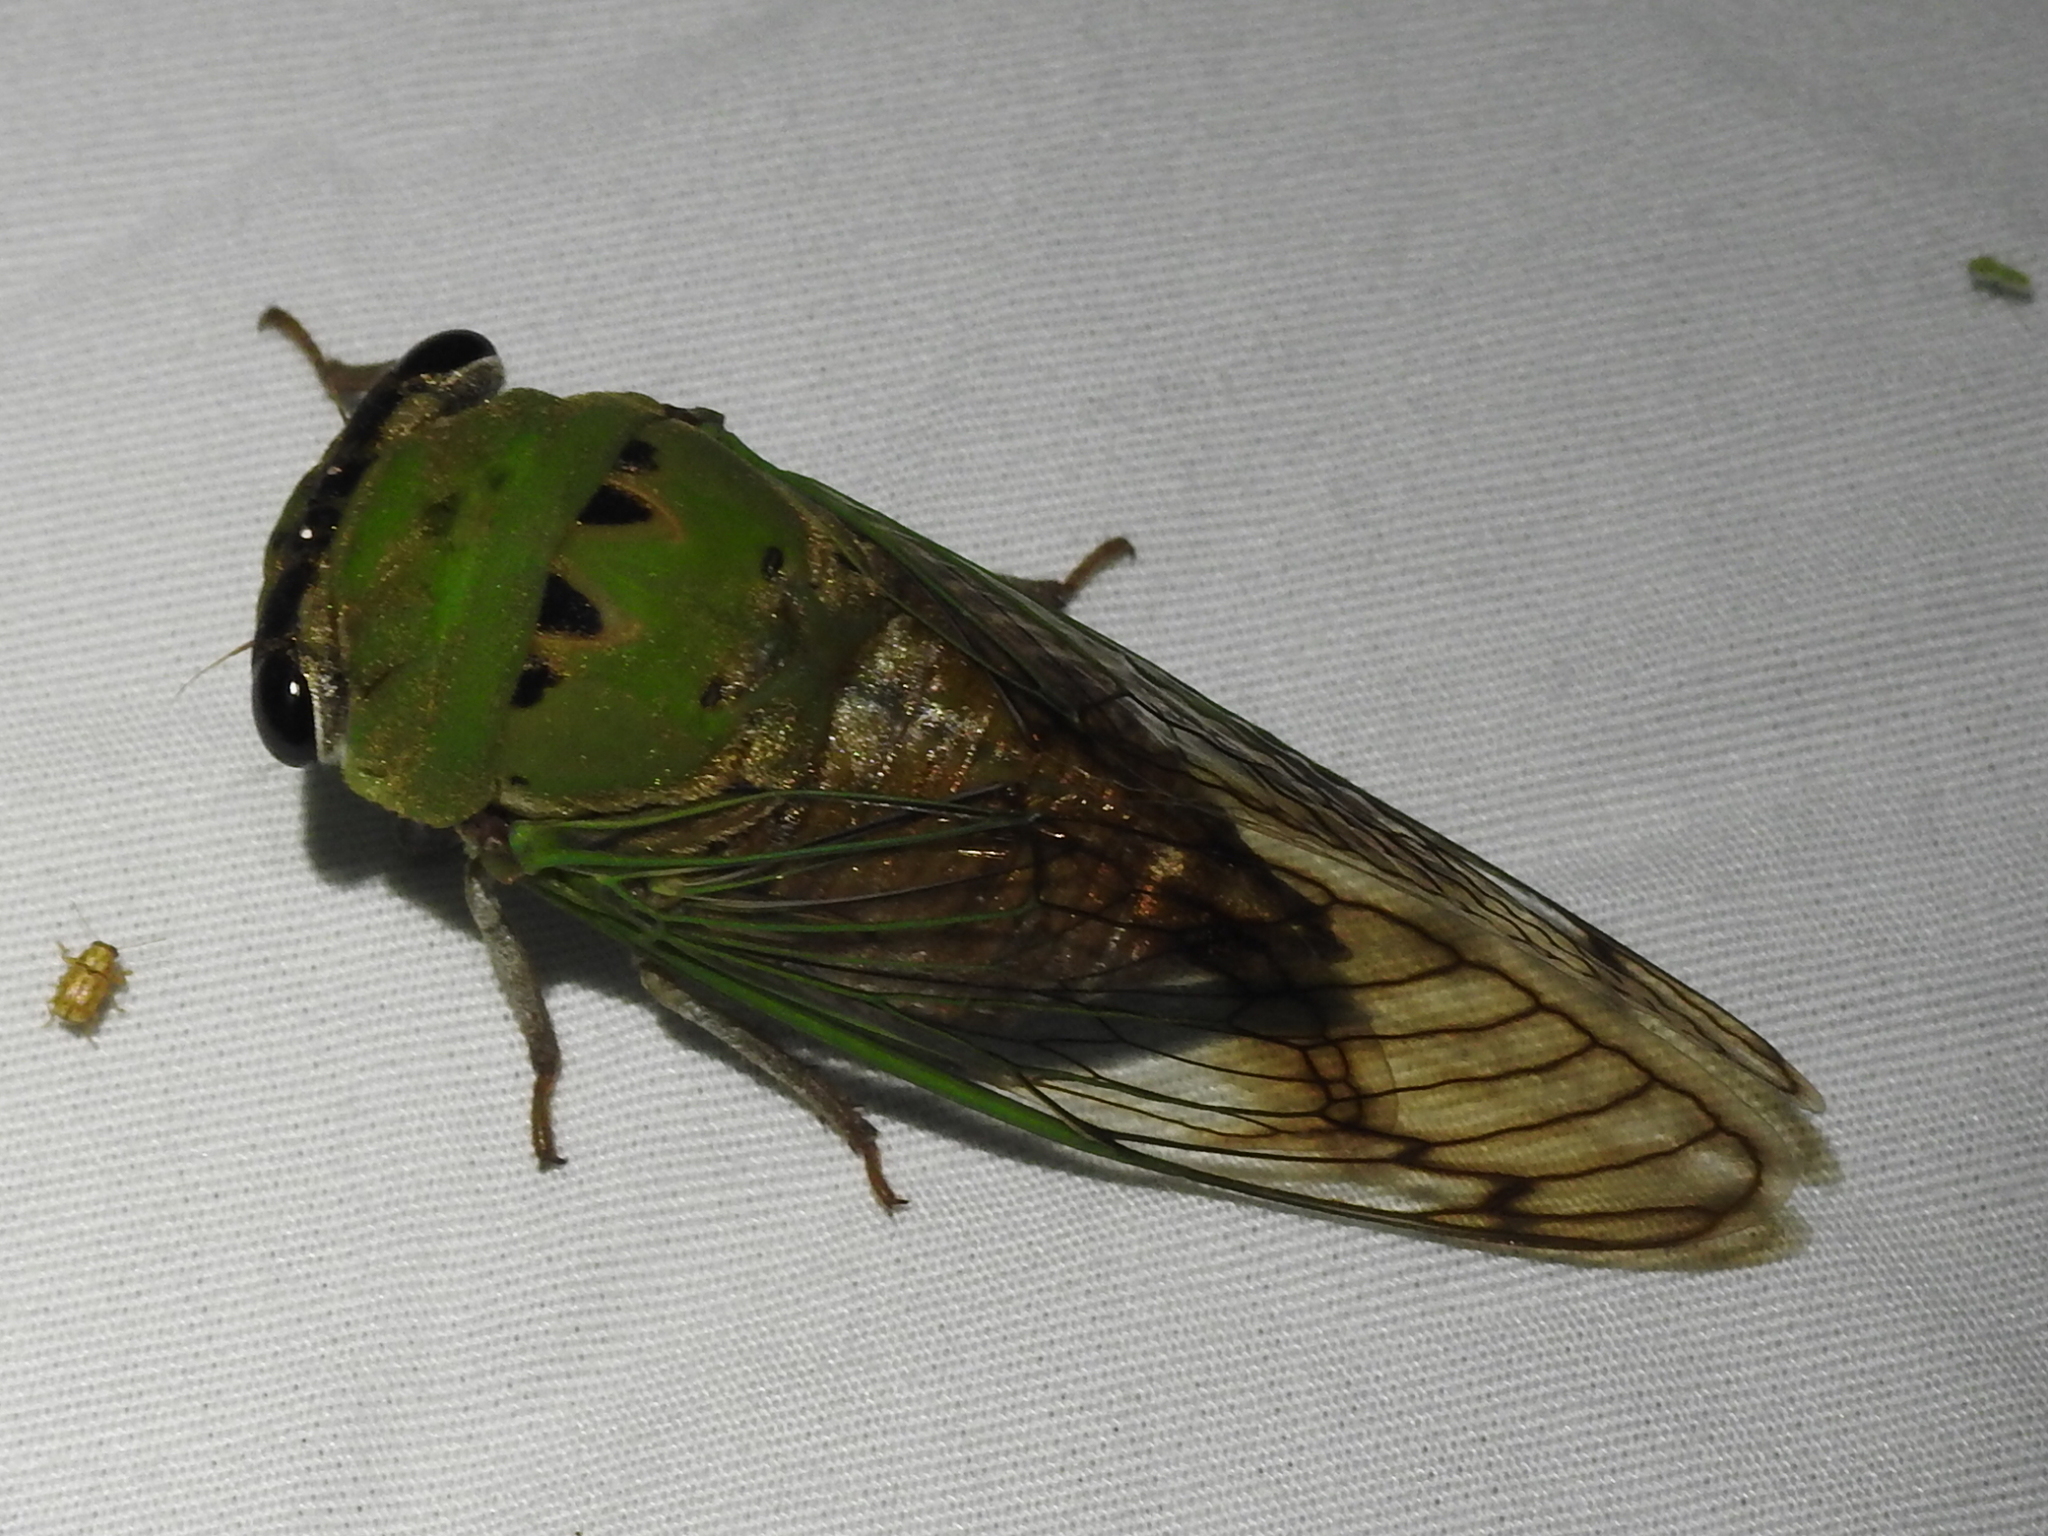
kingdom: Animalia
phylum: Arthropoda
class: Insecta
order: Hemiptera
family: Cicadidae
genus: Neotibicen
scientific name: Neotibicen superbus
